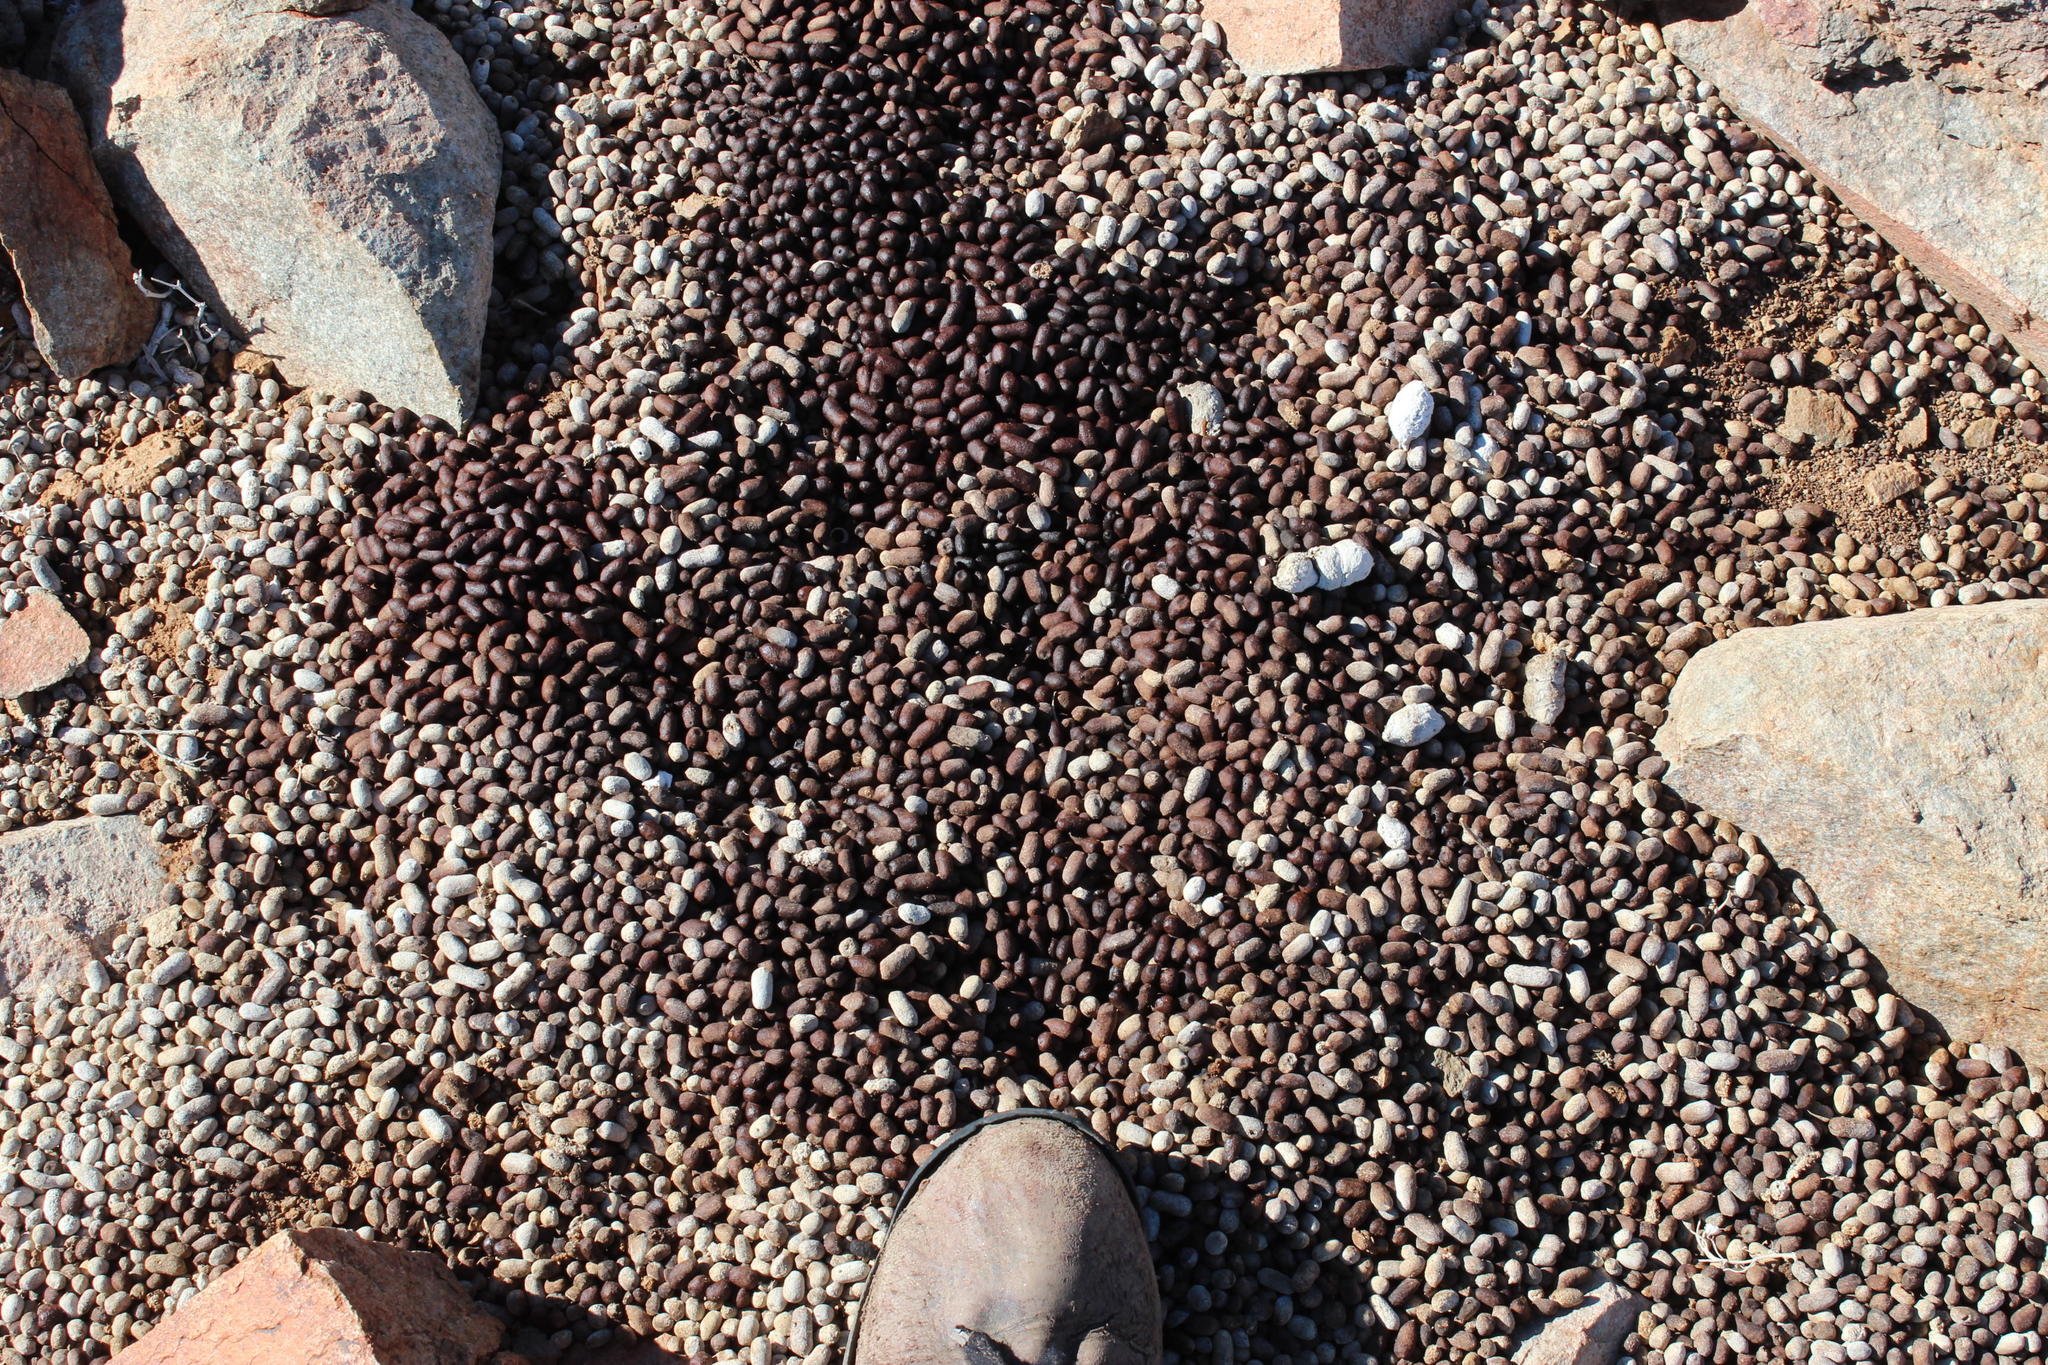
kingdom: Animalia
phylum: Chordata
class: Mammalia
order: Artiodactyla
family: Bovidae
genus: Oreotragus
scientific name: Oreotragus oreotragus
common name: Klipspringer
